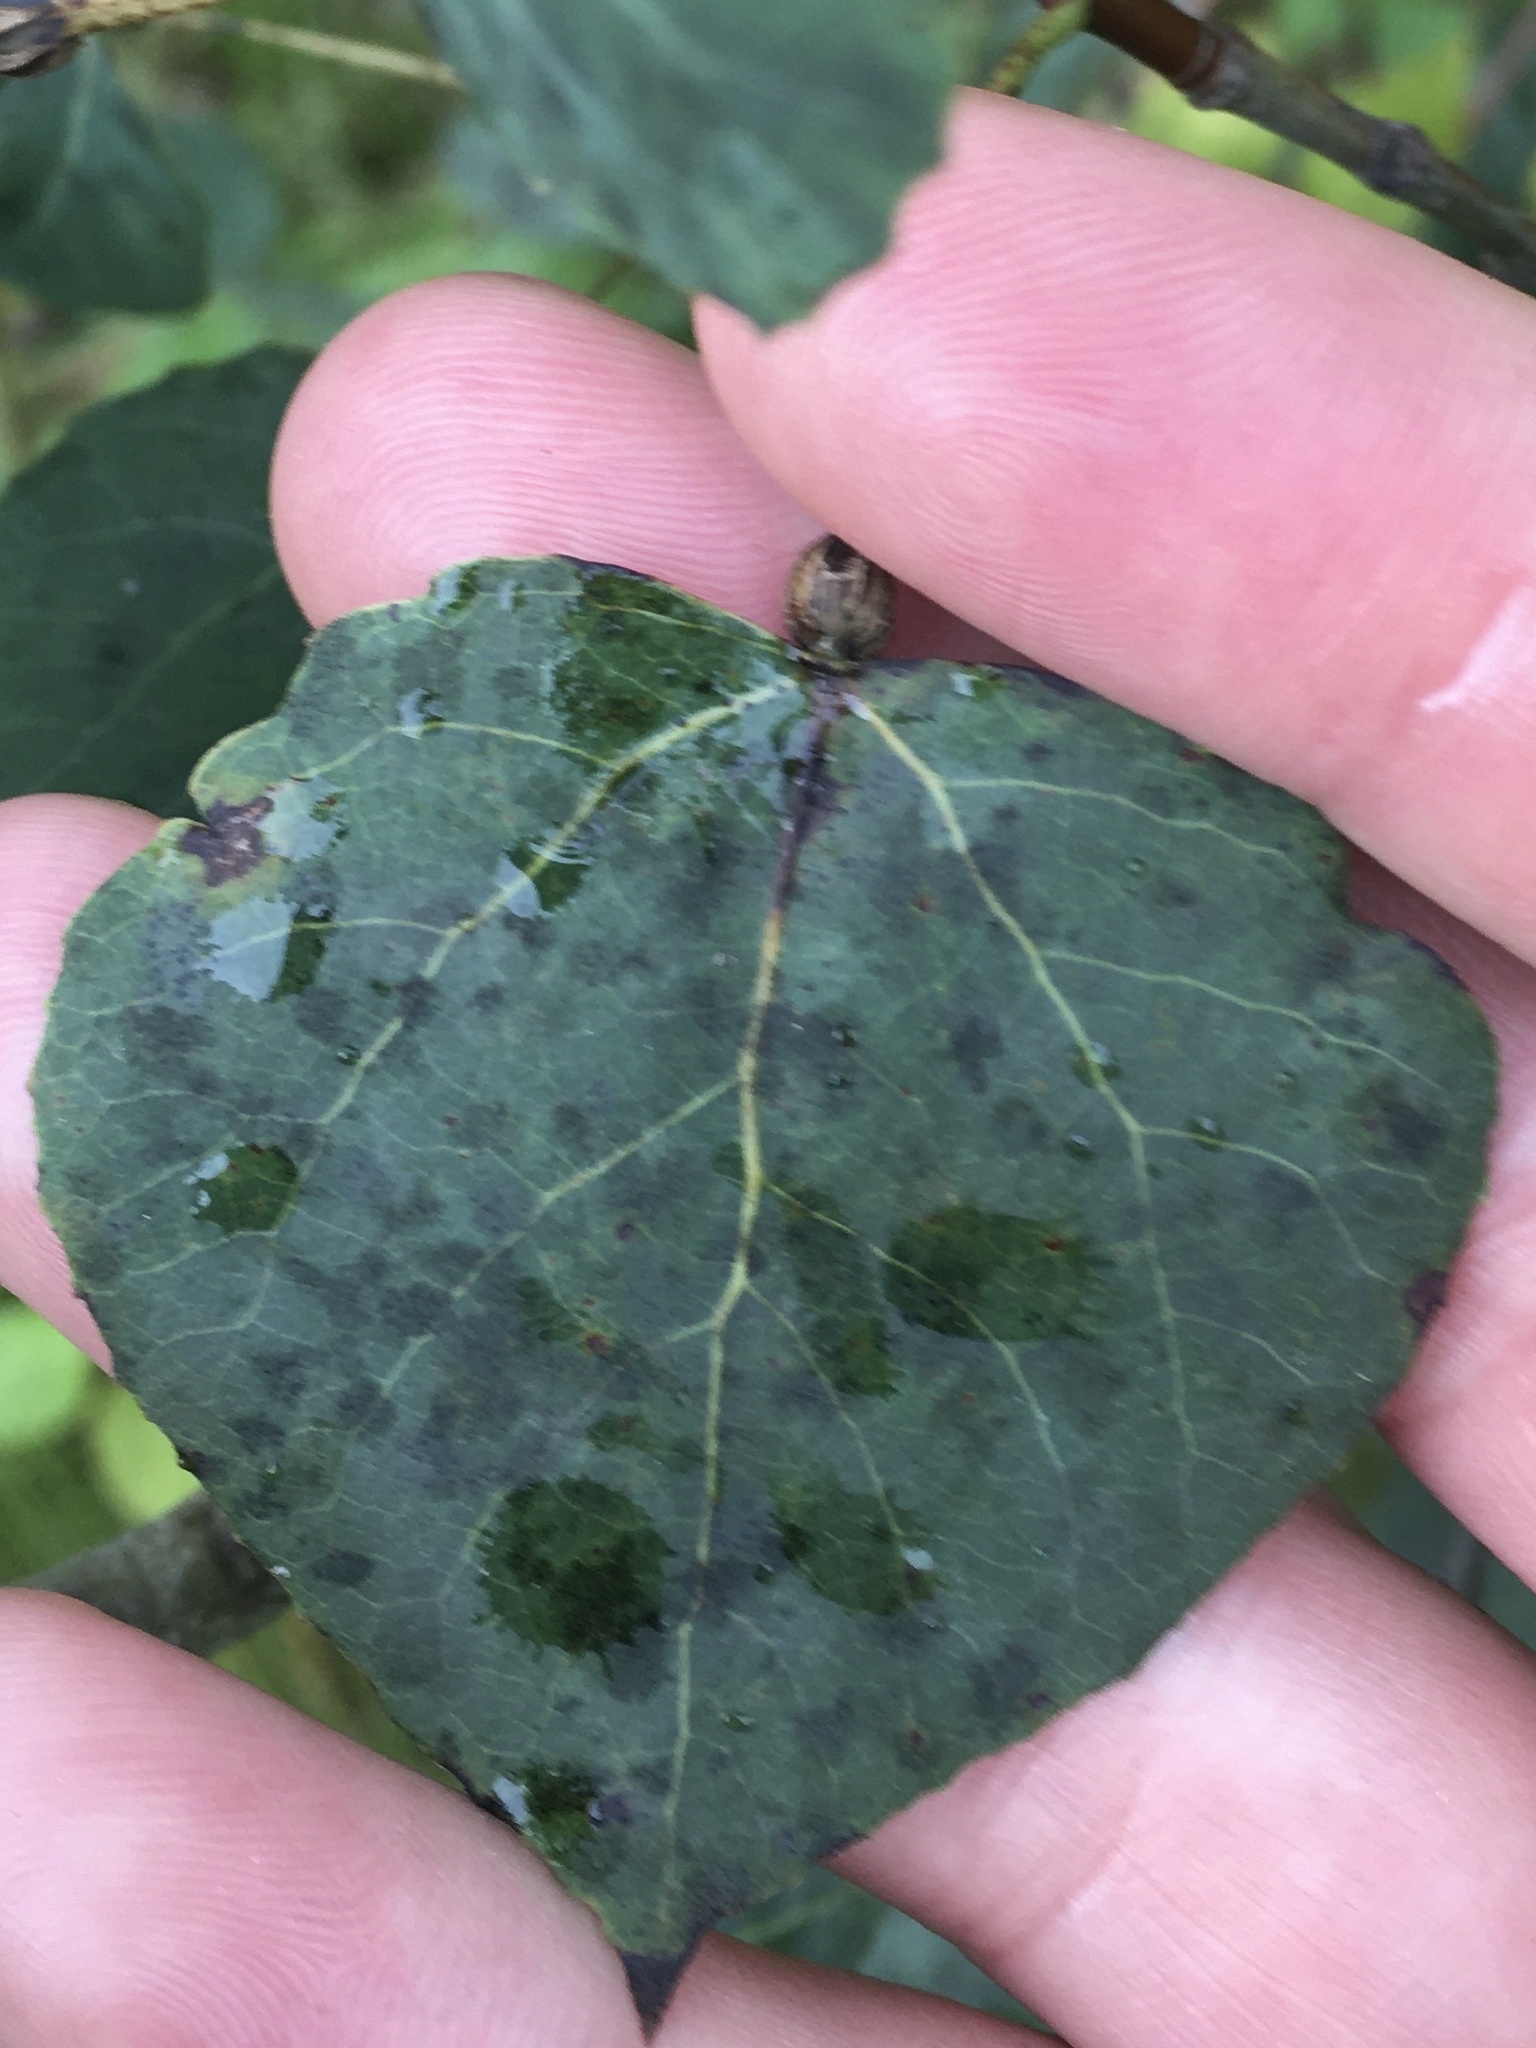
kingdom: Plantae
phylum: Tracheophyta
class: Magnoliopsida
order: Malpighiales
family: Salicaceae
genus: Populus
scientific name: Populus tremuloides
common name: Quaking aspen
